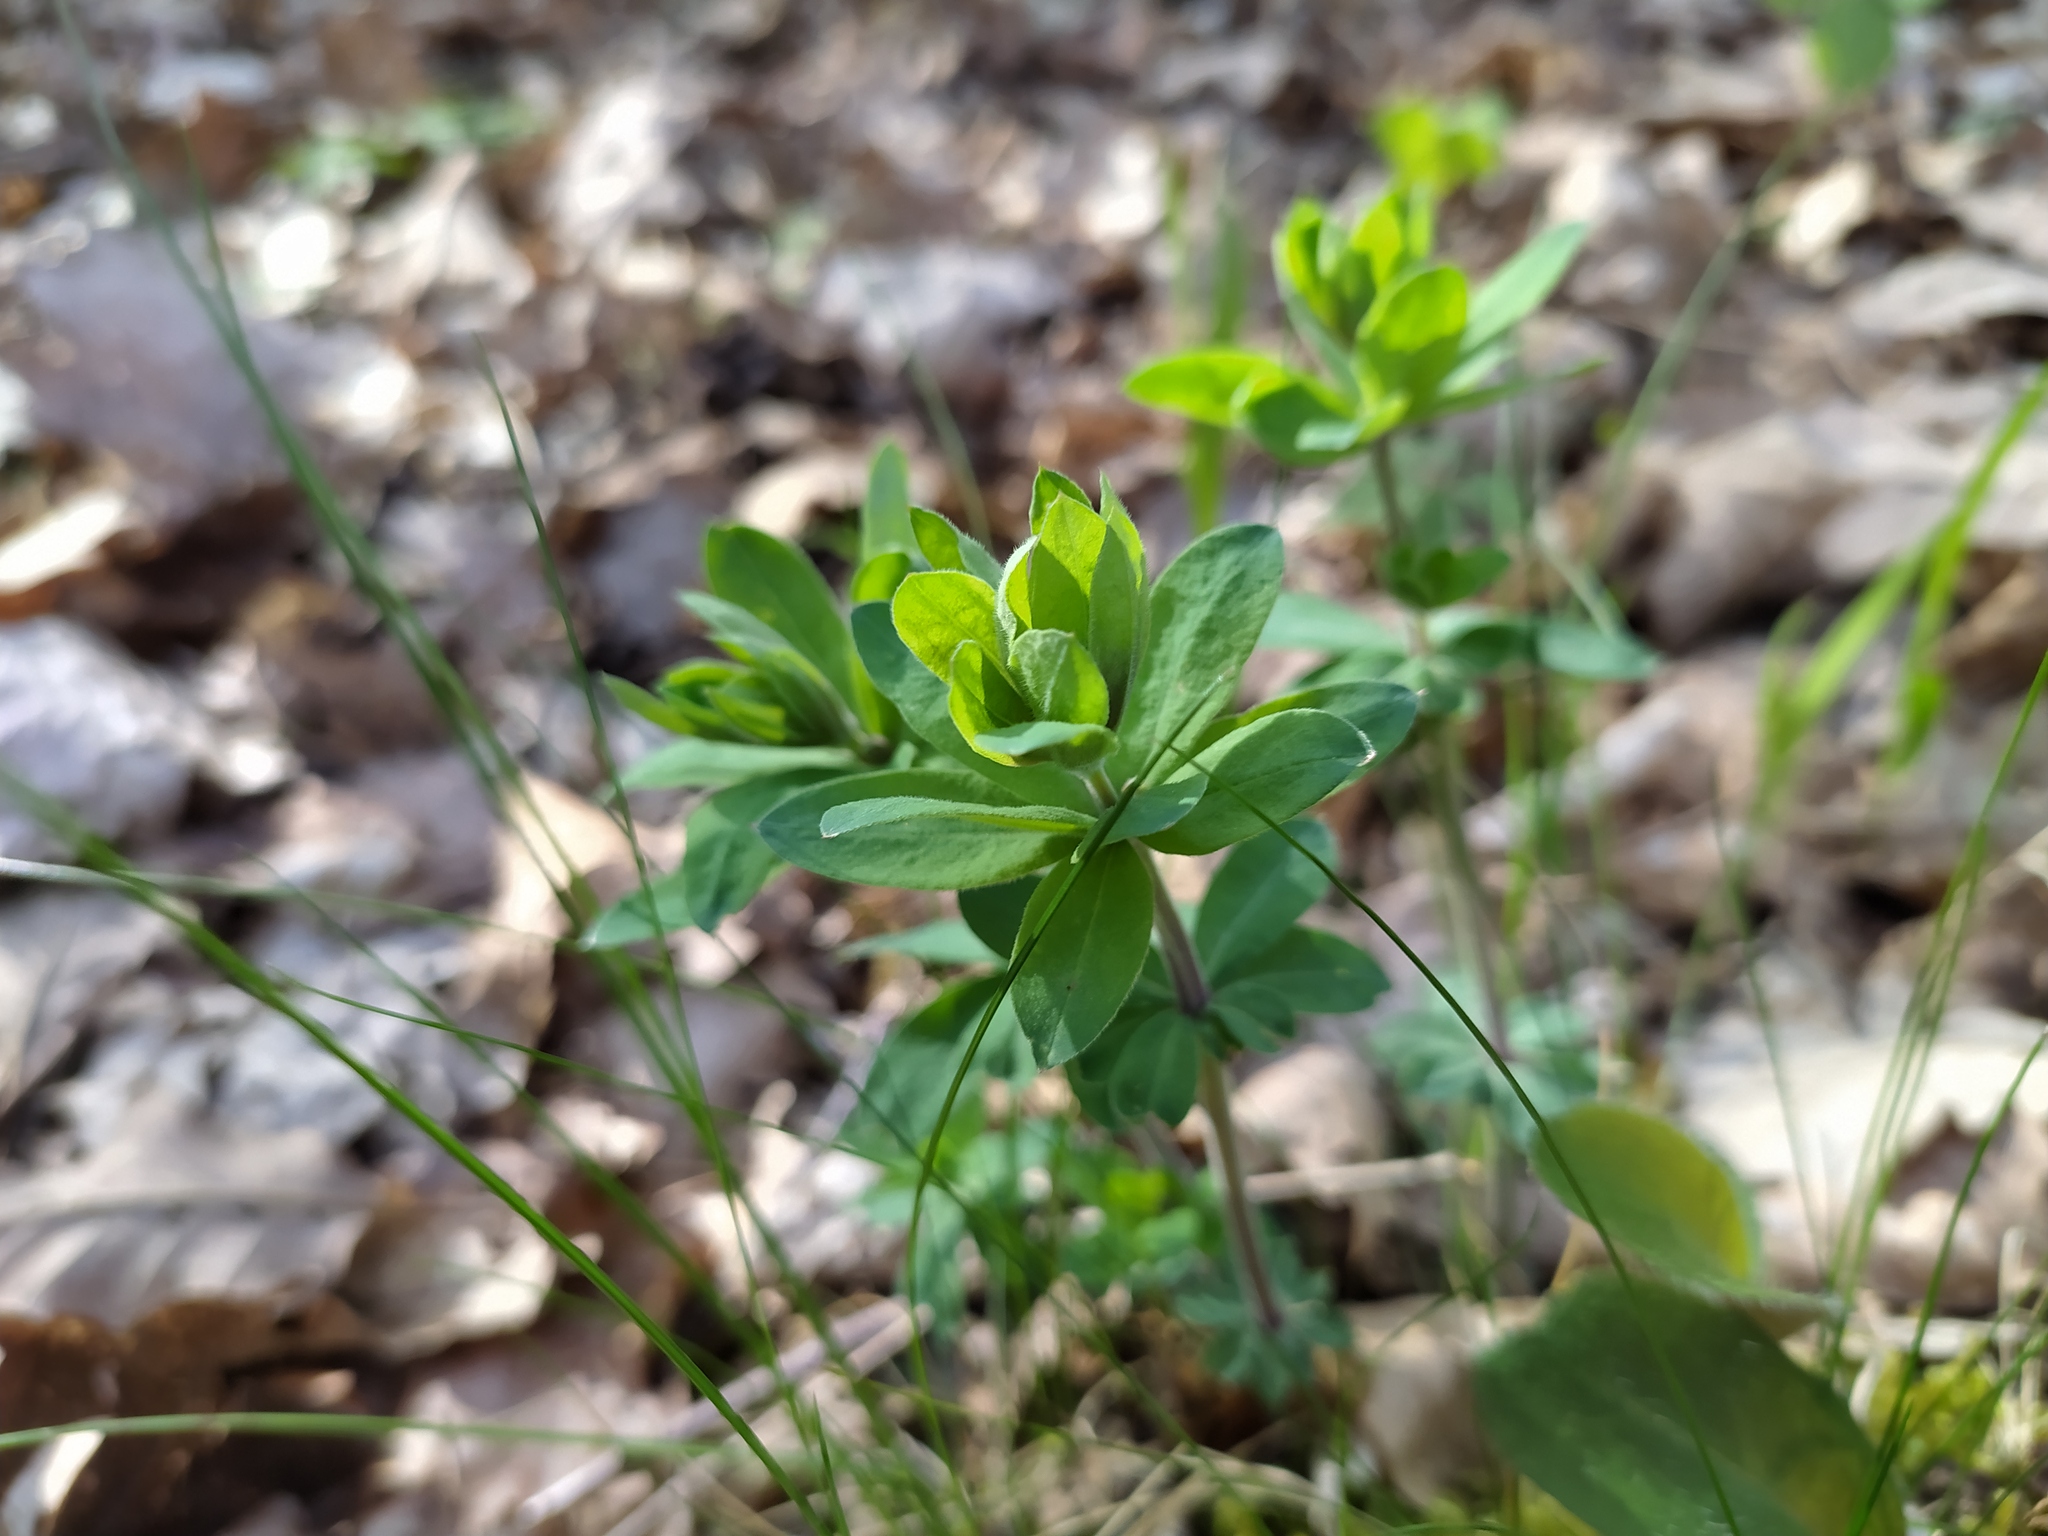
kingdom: Plantae
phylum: Tracheophyta
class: Magnoliopsida
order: Gentianales
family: Rubiaceae
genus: Galium
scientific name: Galium sylvaticum
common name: Wood bedstraw
